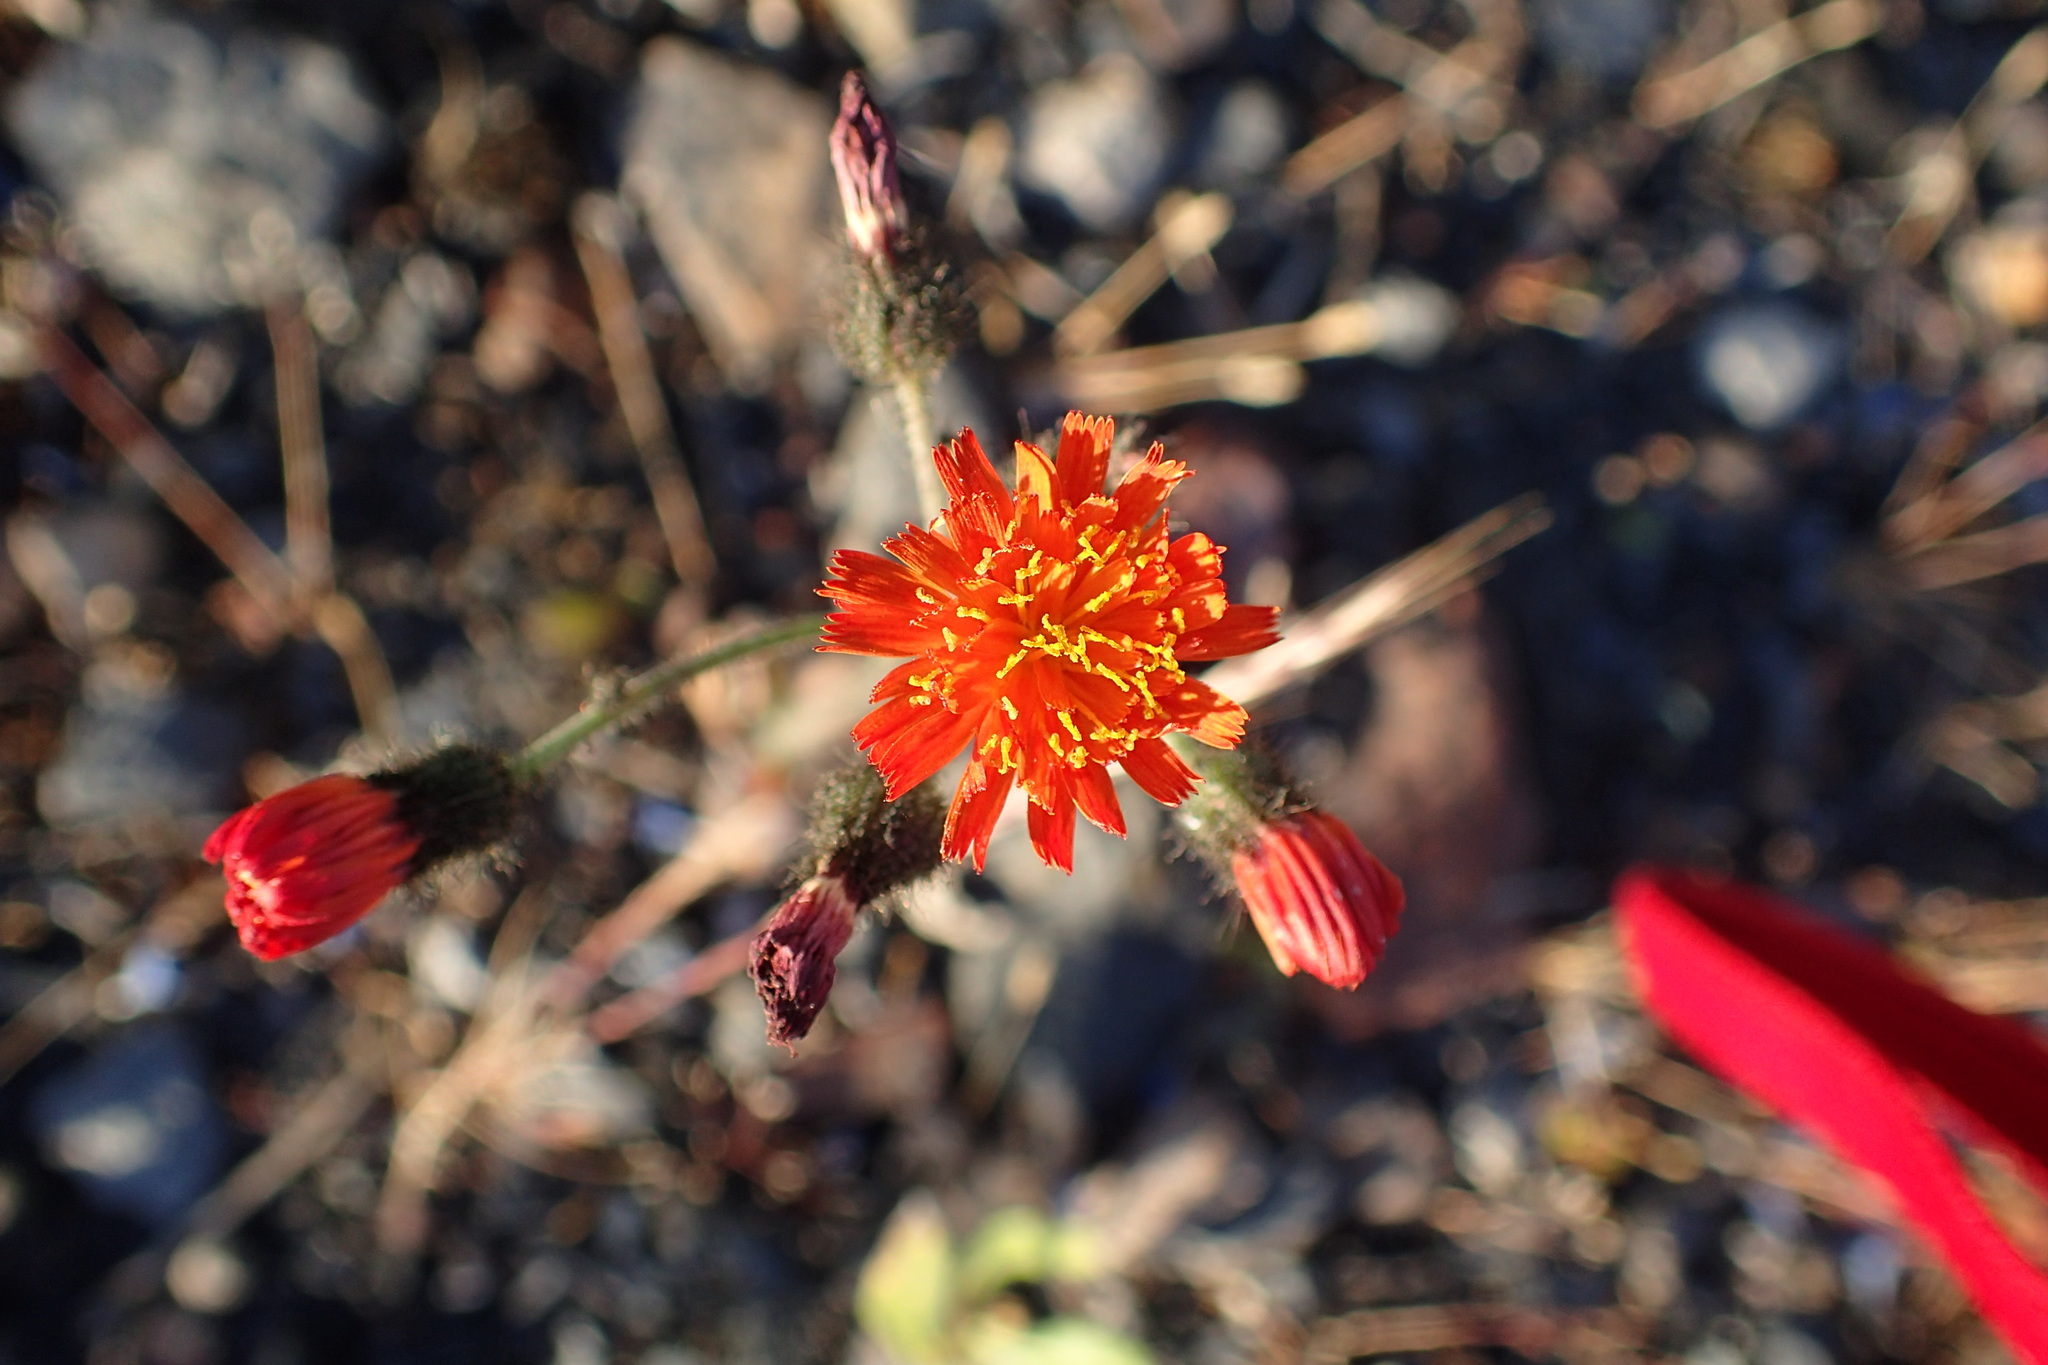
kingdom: Plantae
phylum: Tracheophyta
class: Magnoliopsida
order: Asterales
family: Asteraceae
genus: Pilosella
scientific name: Pilosella aurantiaca
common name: Fox-and-cubs
